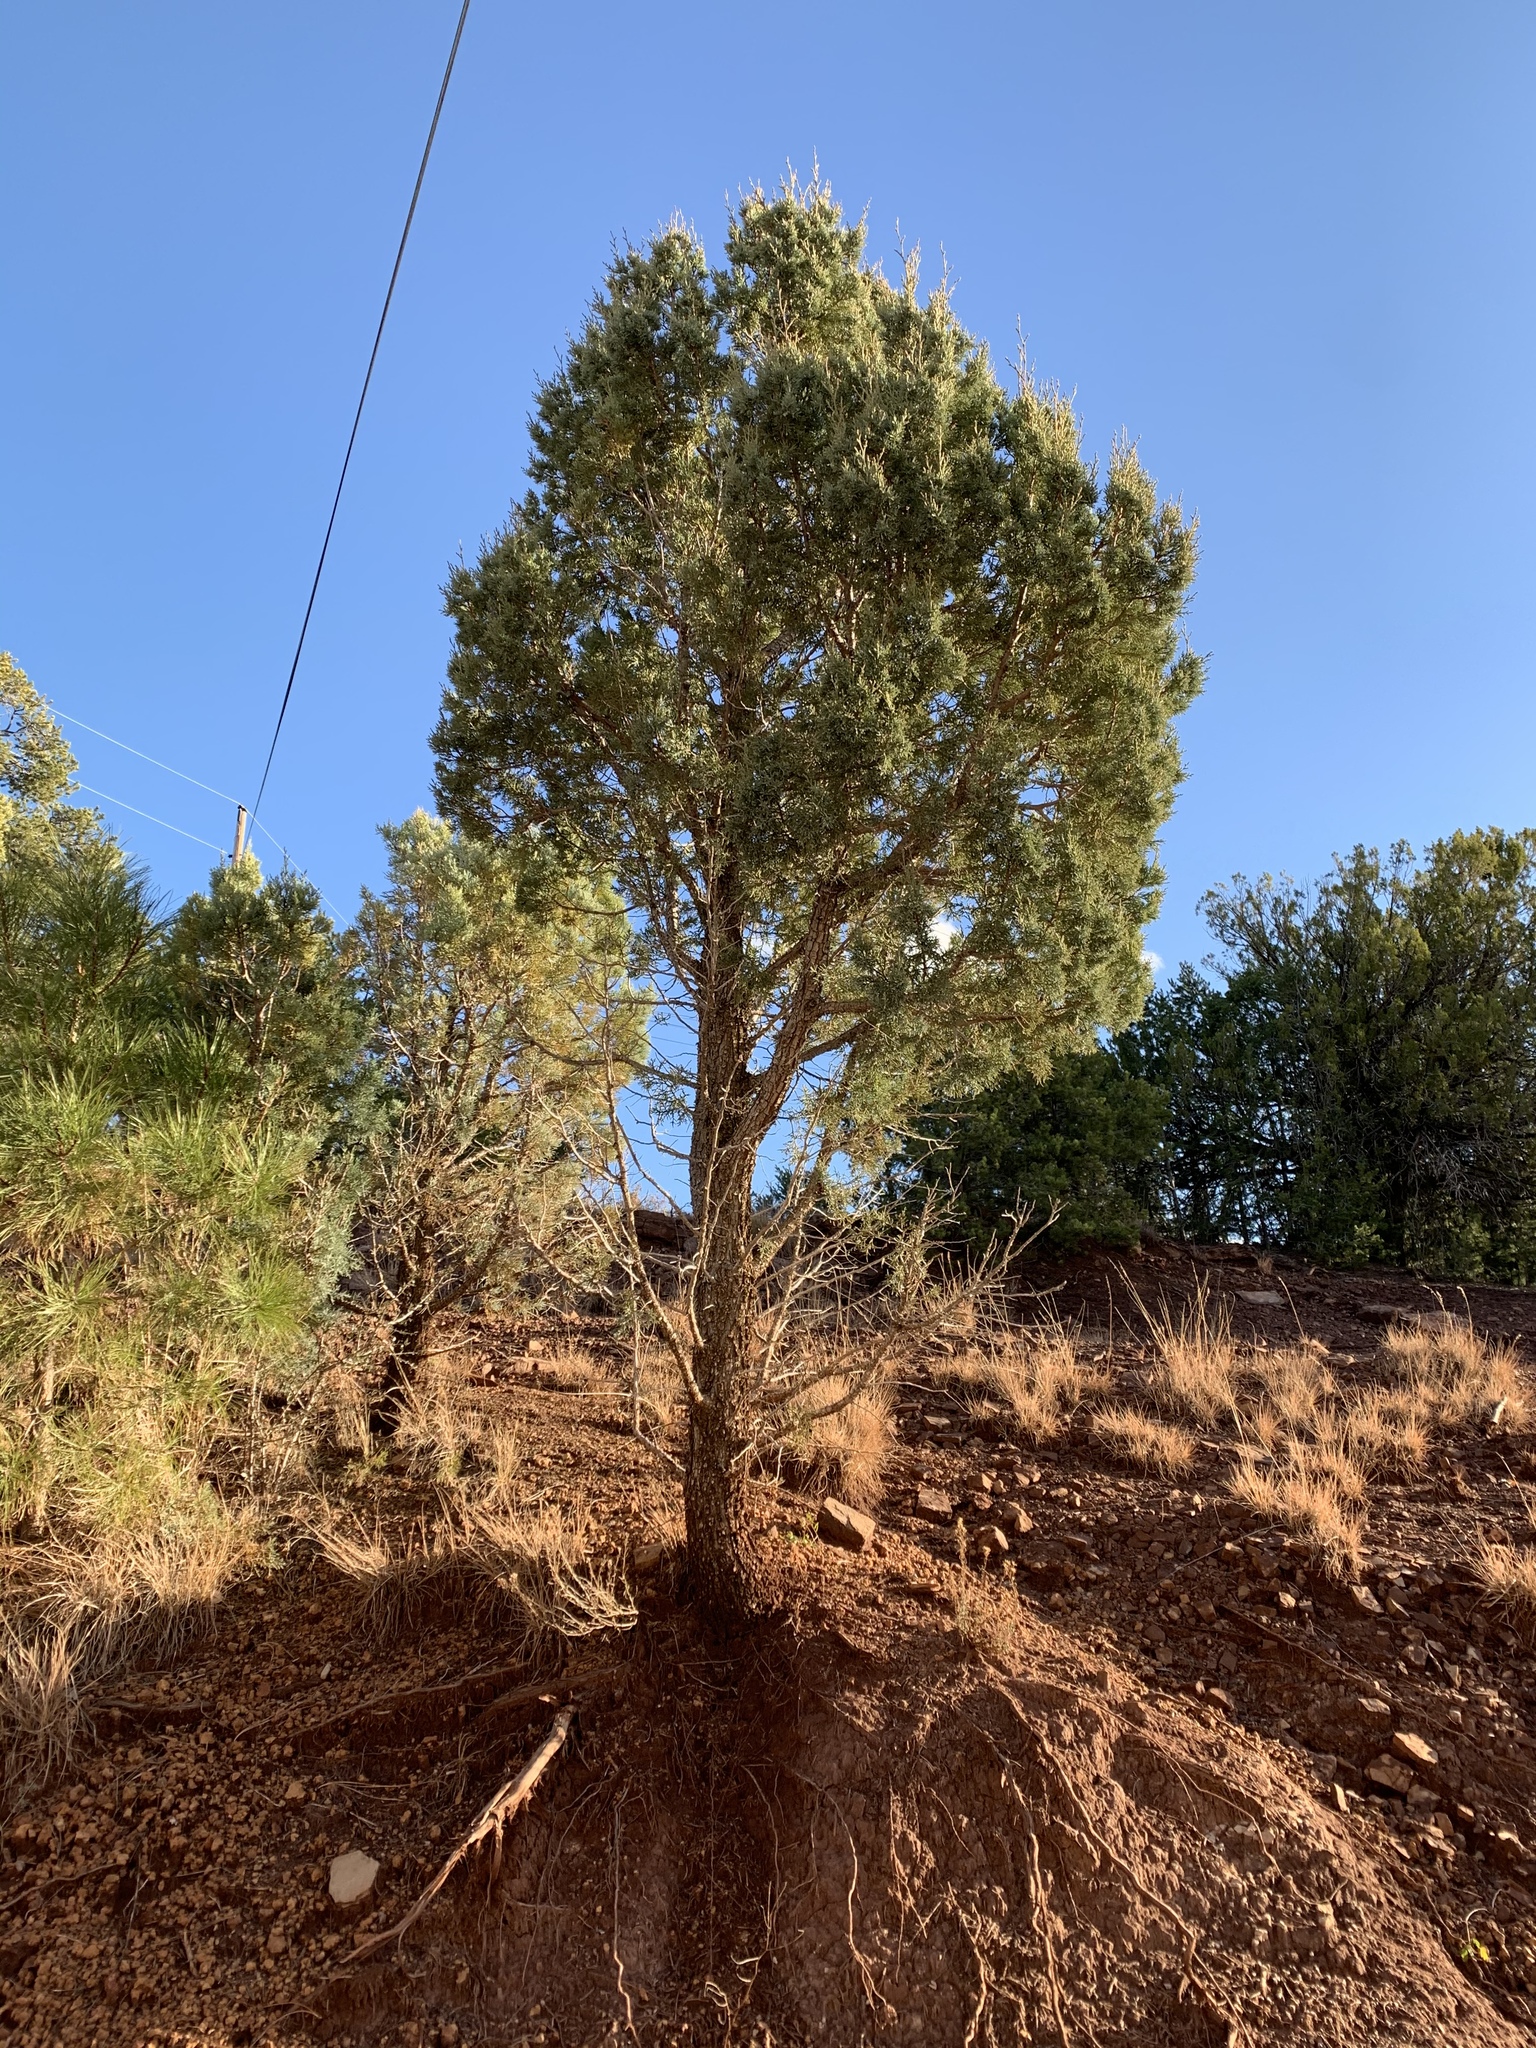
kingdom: Plantae
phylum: Tracheophyta
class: Pinopsida
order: Pinales
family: Cupressaceae
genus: Juniperus
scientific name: Juniperus deppeana
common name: Alligator juniper
